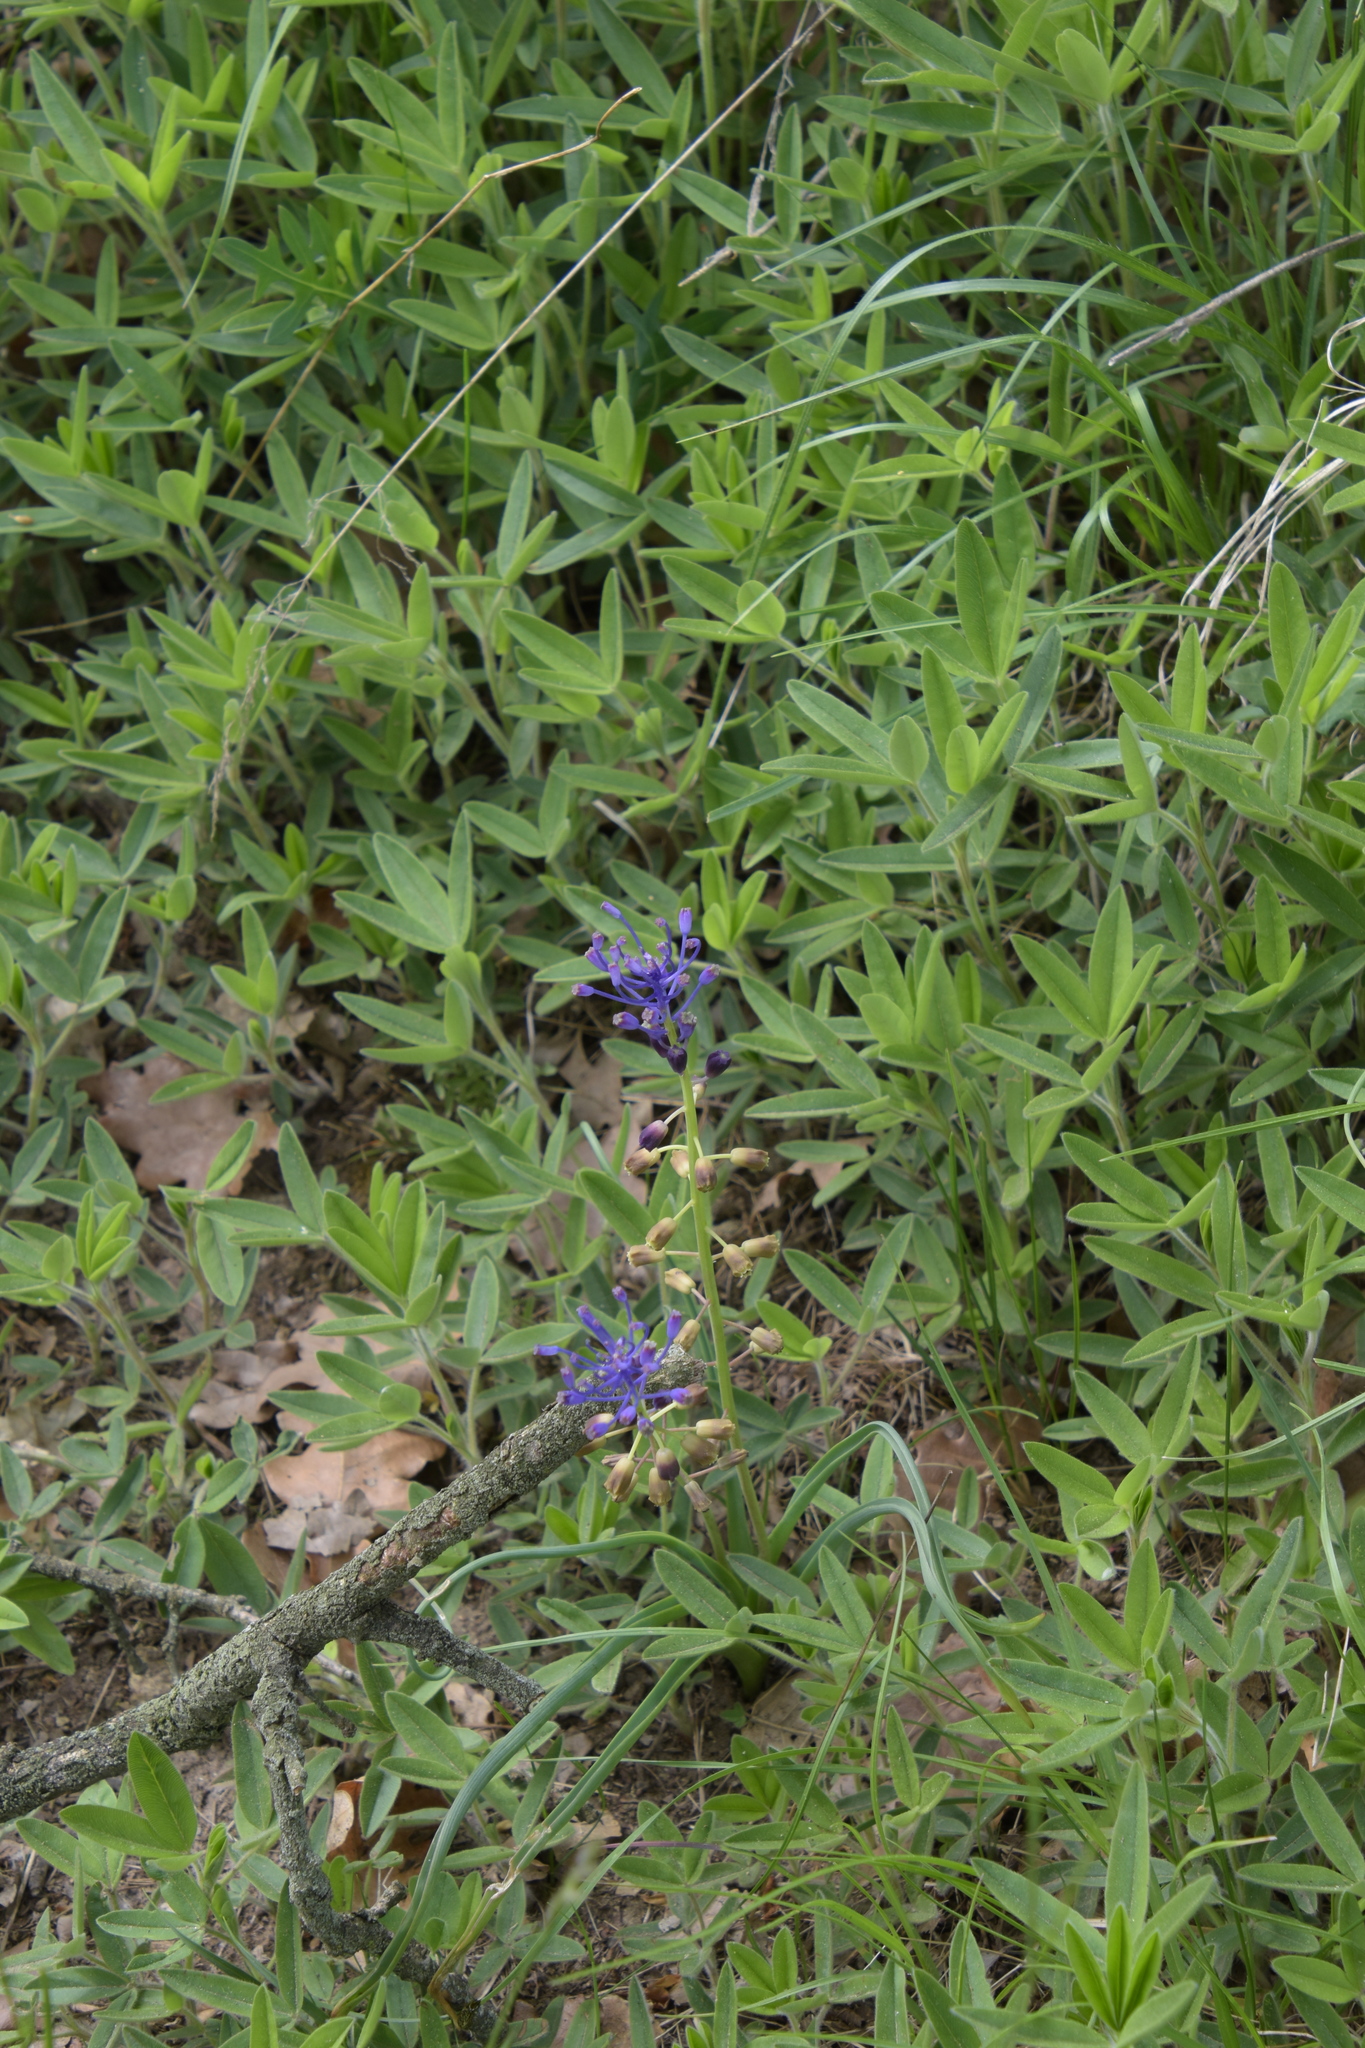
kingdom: Plantae
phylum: Tracheophyta
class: Liliopsida
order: Asparagales
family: Asparagaceae
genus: Muscari
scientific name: Muscari comosum
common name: Tassel hyacinth
